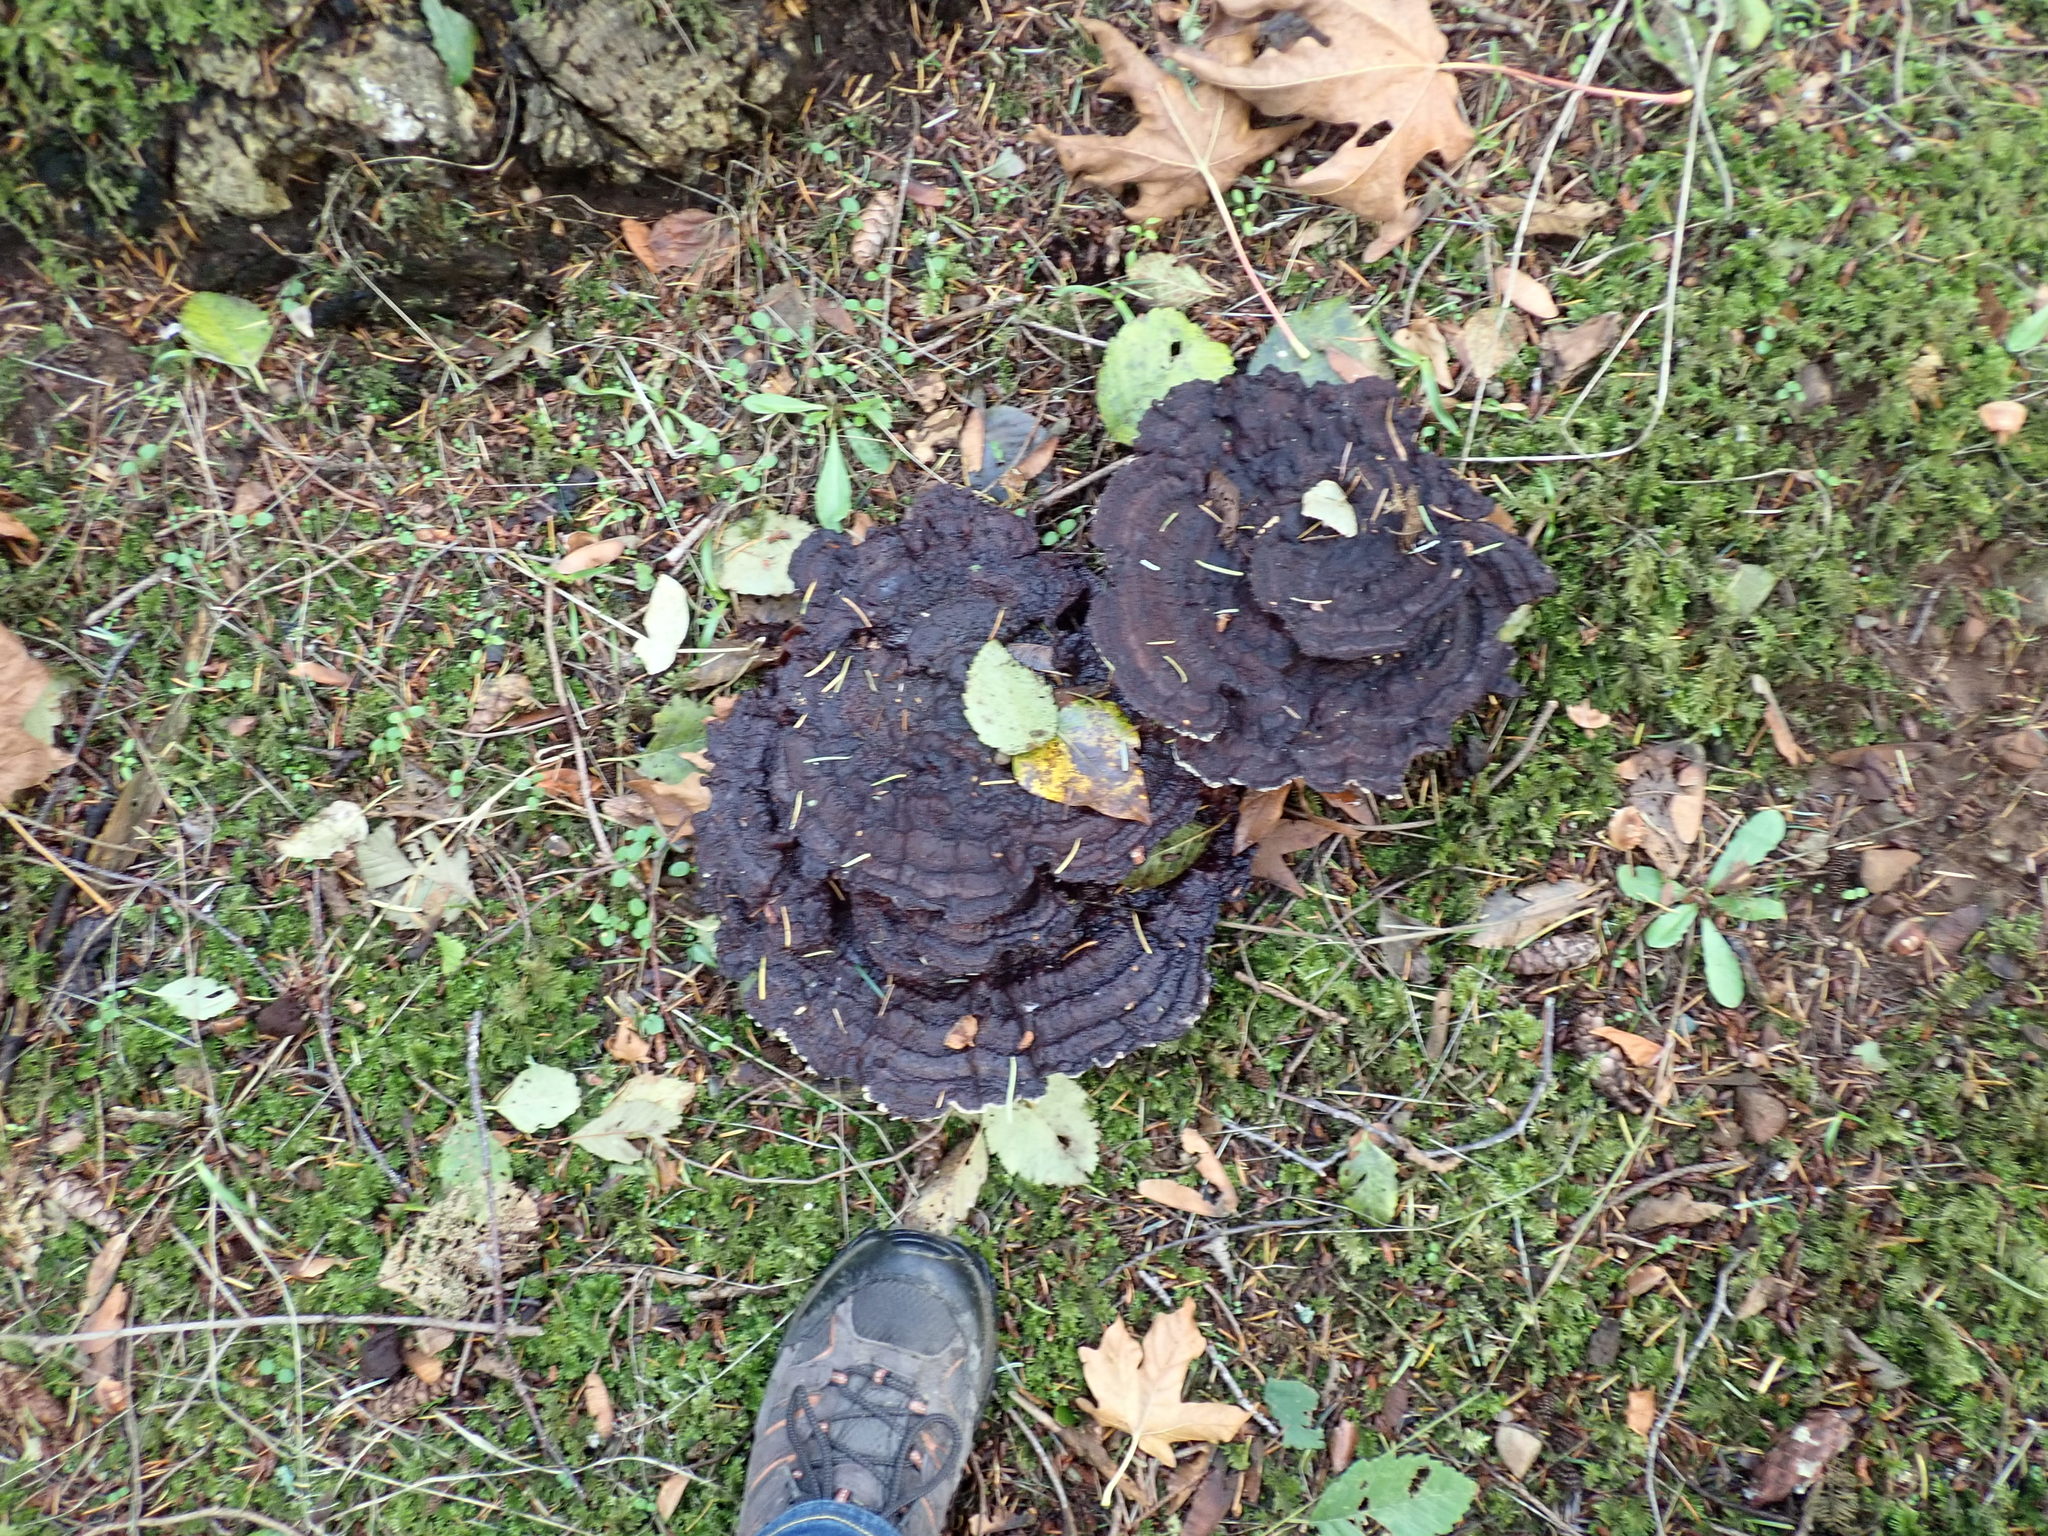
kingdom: Fungi
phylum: Basidiomycota
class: Agaricomycetes
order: Polyporales
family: Laetiporaceae
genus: Phaeolus
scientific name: Phaeolus schweinitzii
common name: Dyer's mazegill
